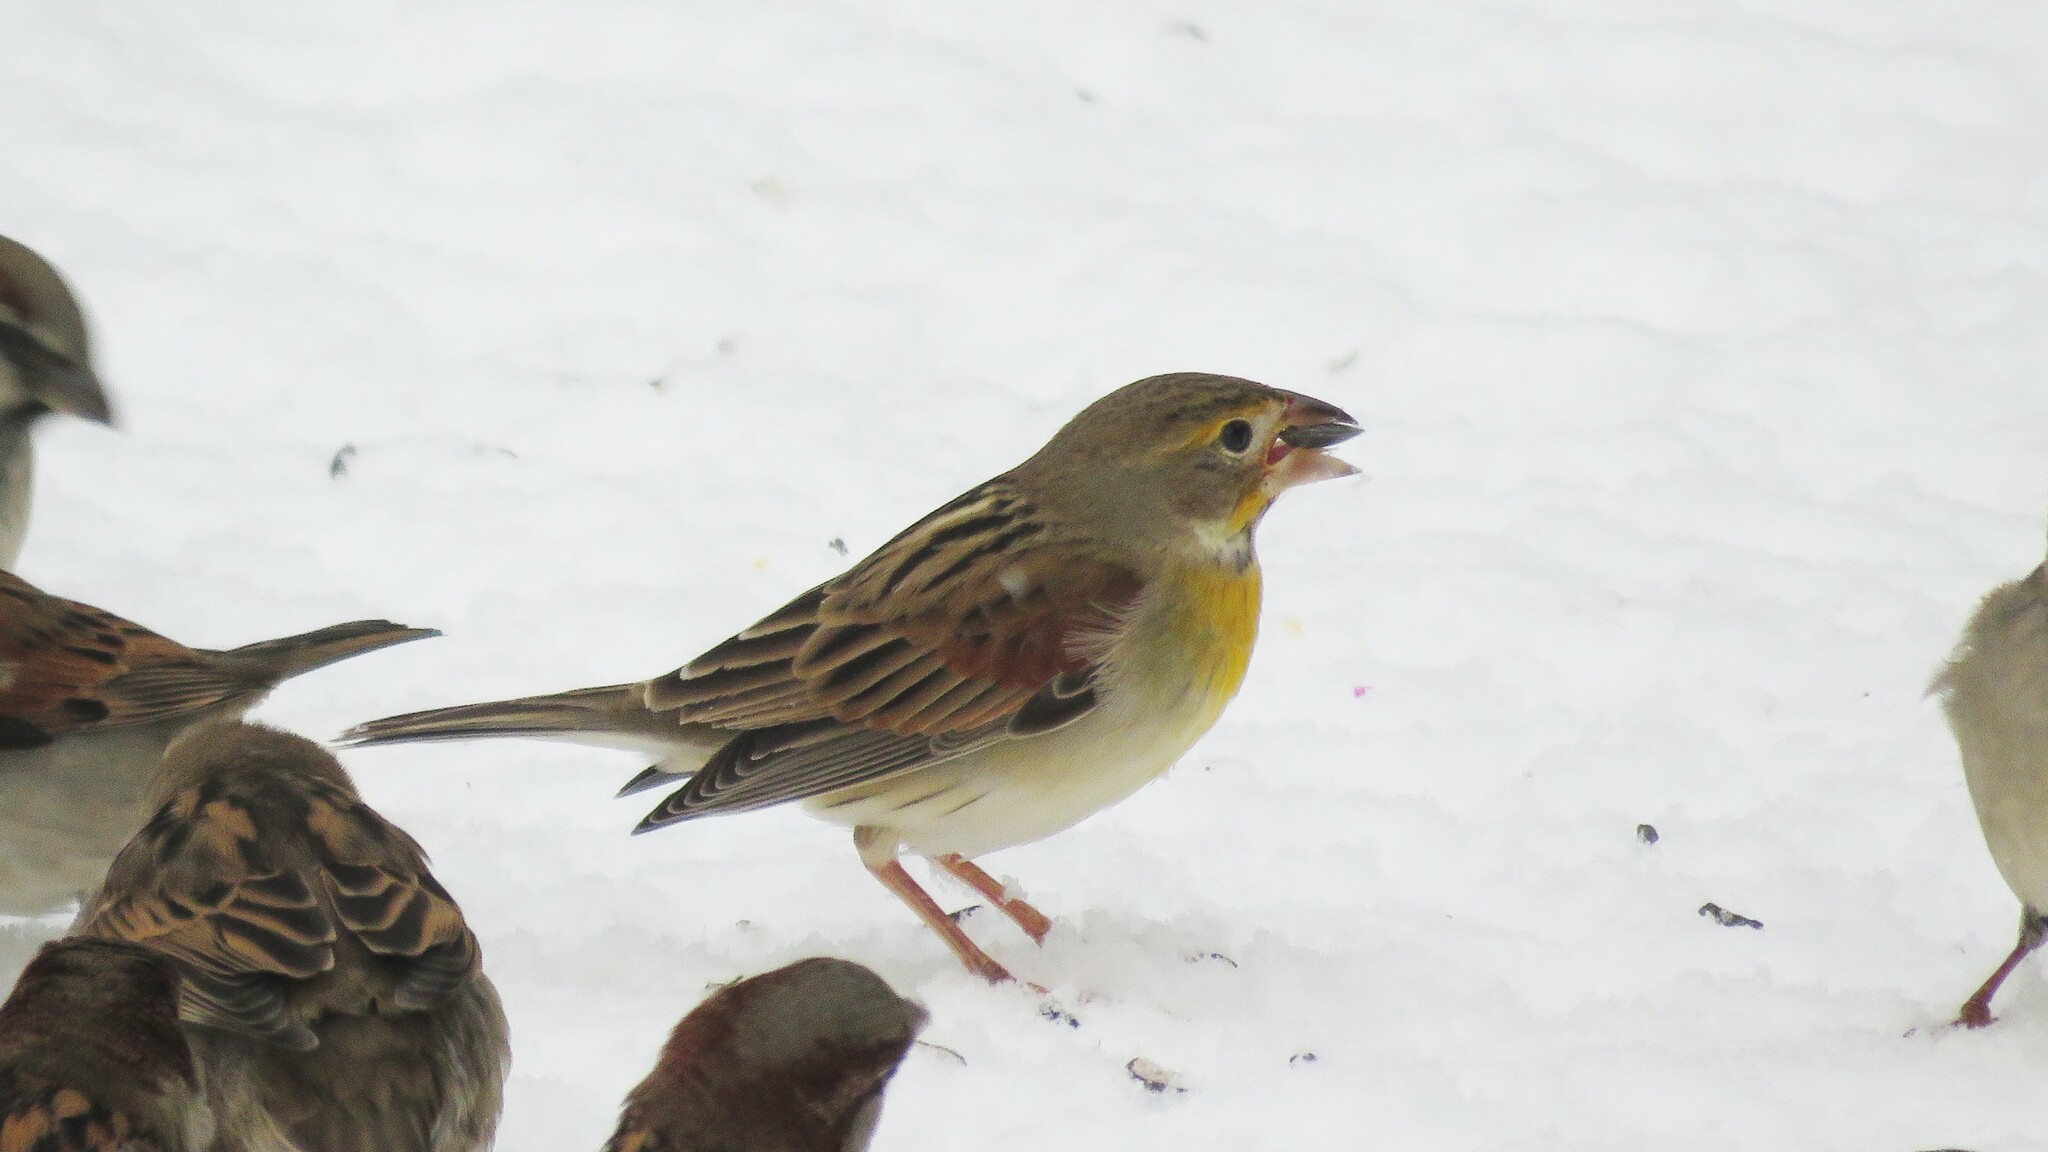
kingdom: Animalia
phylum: Chordata
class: Aves
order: Passeriformes
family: Cardinalidae
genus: Spiza
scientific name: Spiza americana
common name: Dickcissel
